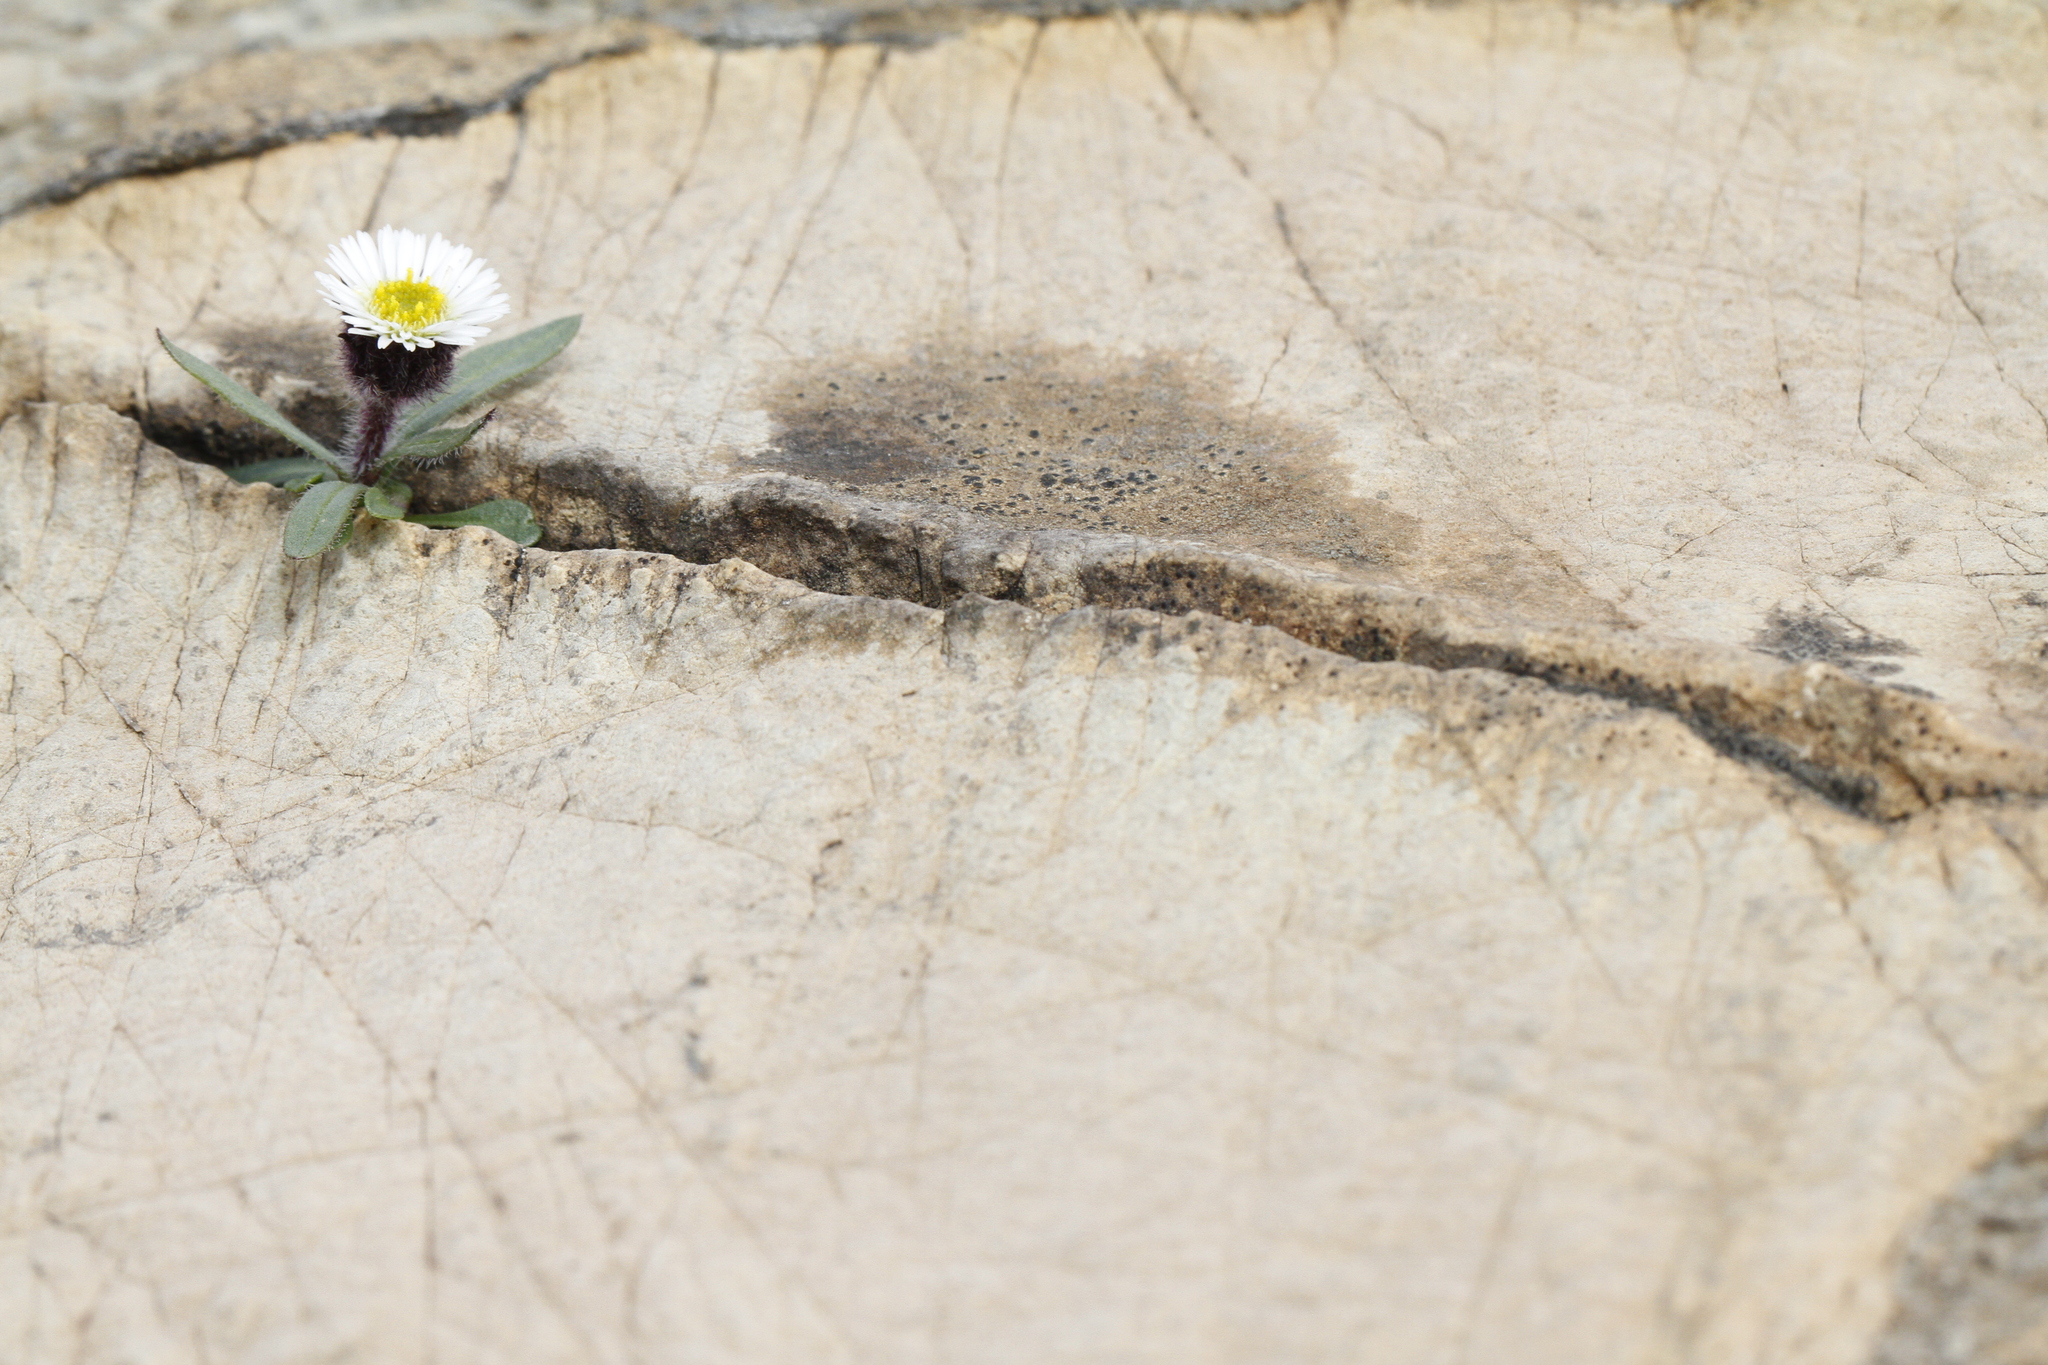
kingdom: Plantae
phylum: Tracheophyta
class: Magnoliopsida
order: Asterales
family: Asteraceae
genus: Erigeron
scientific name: Erigeron humilis
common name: Arctic-alpine fleabane
